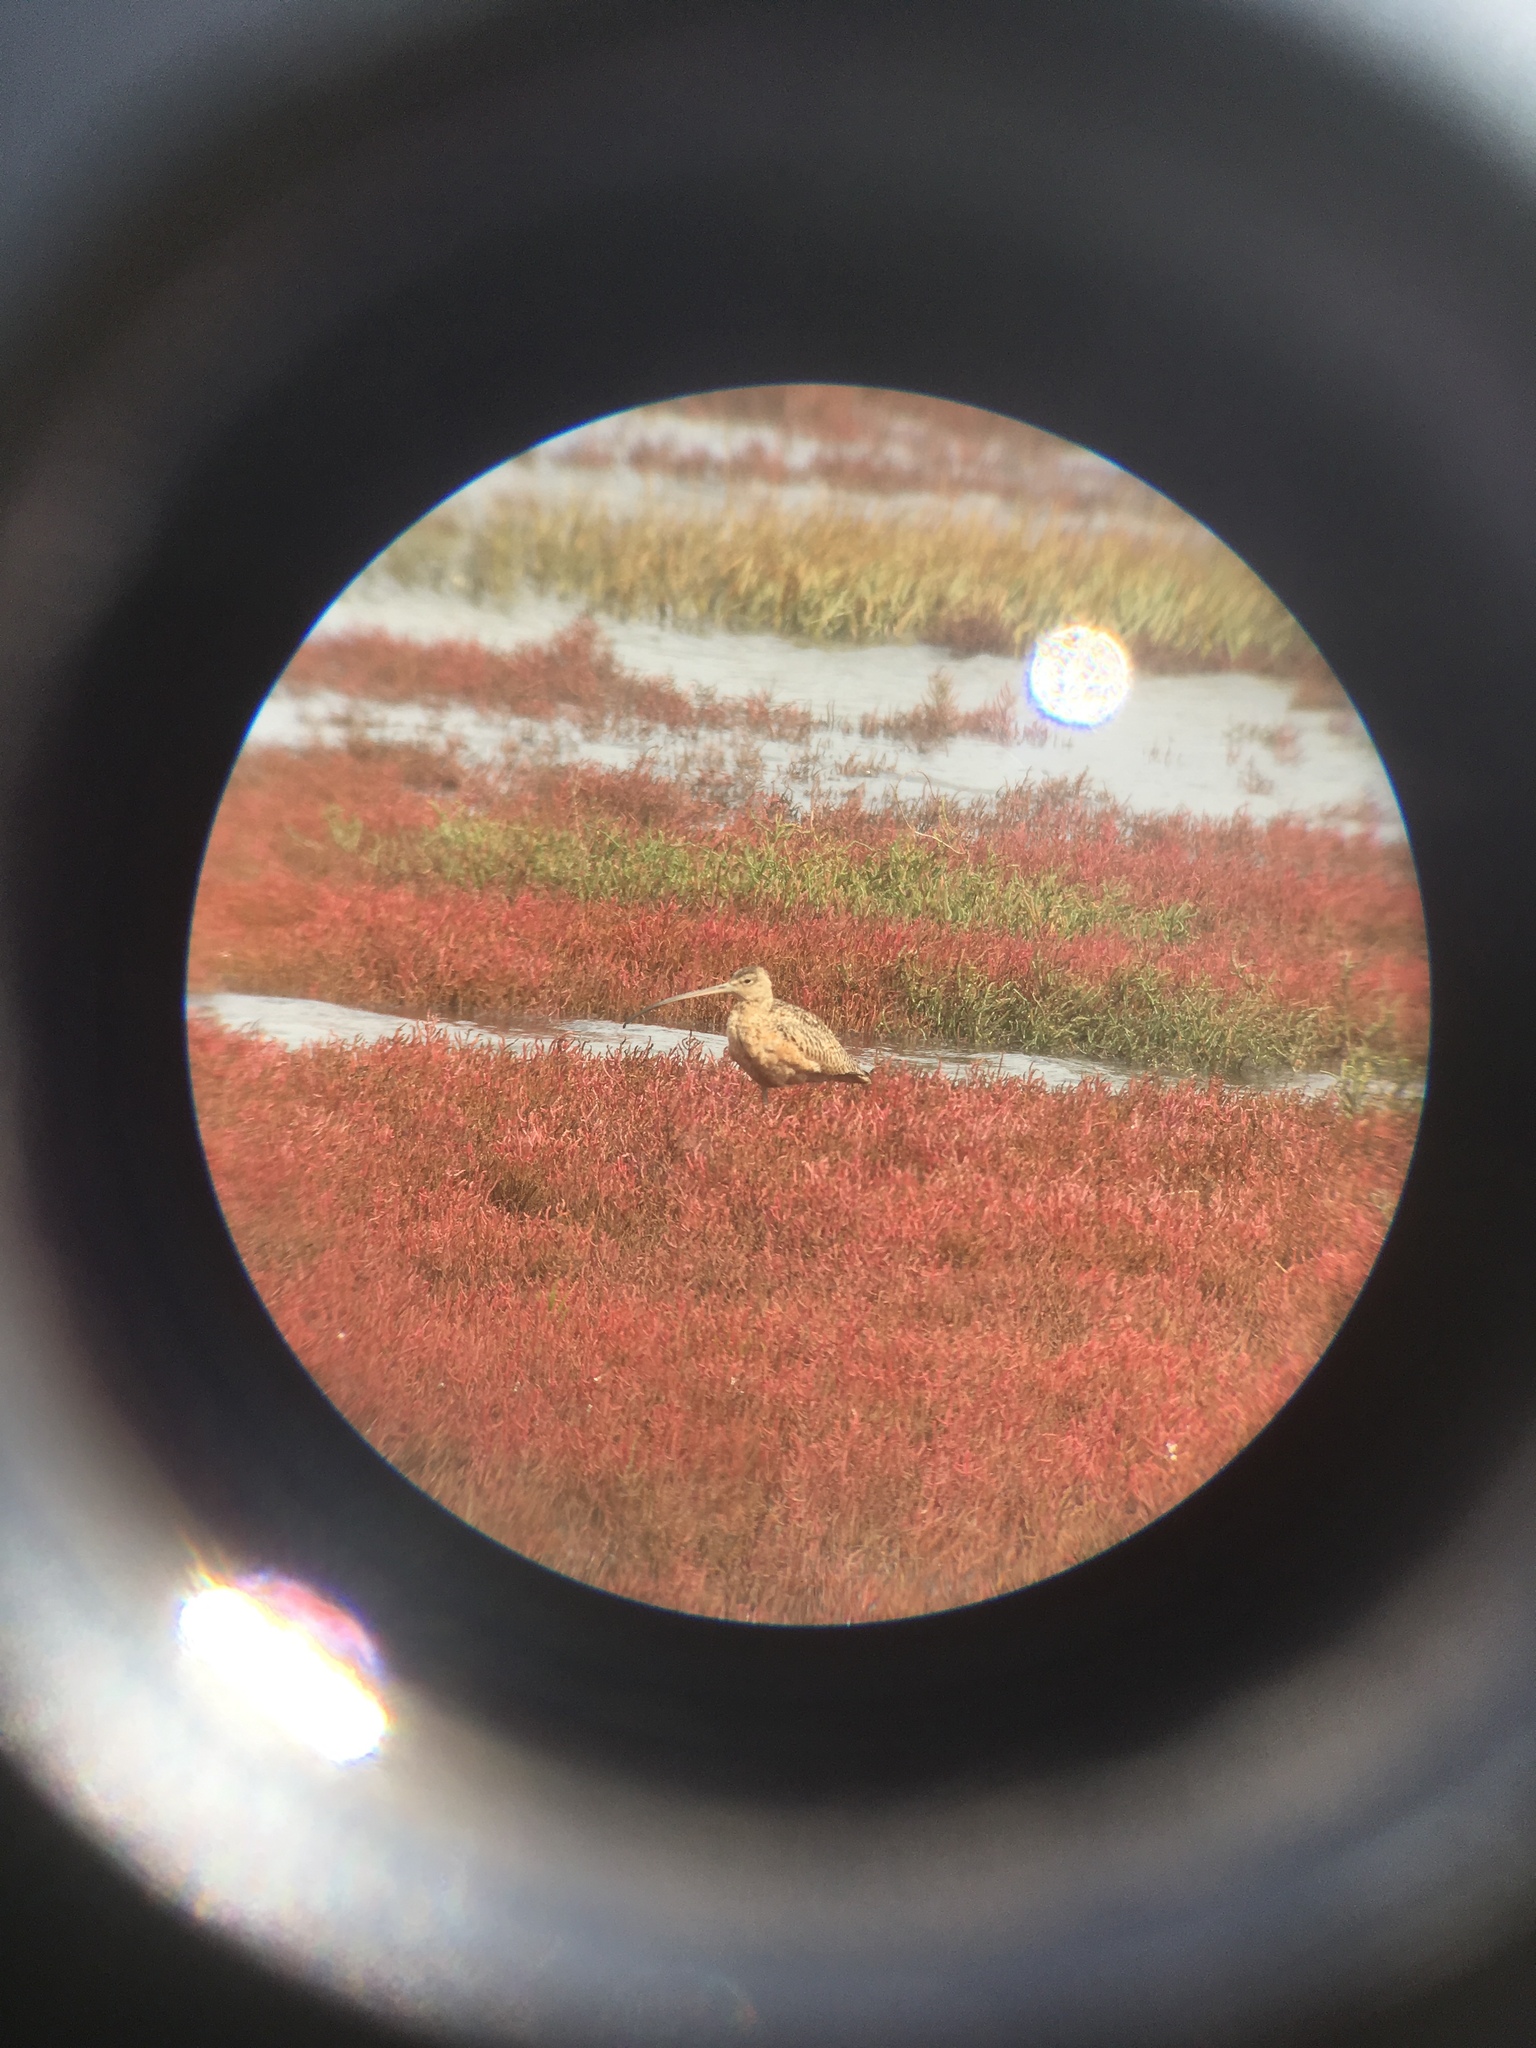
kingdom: Animalia
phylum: Chordata
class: Aves
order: Charadriiformes
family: Scolopacidae
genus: Numenius
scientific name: Numenius americanus
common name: Long-billed curlew
